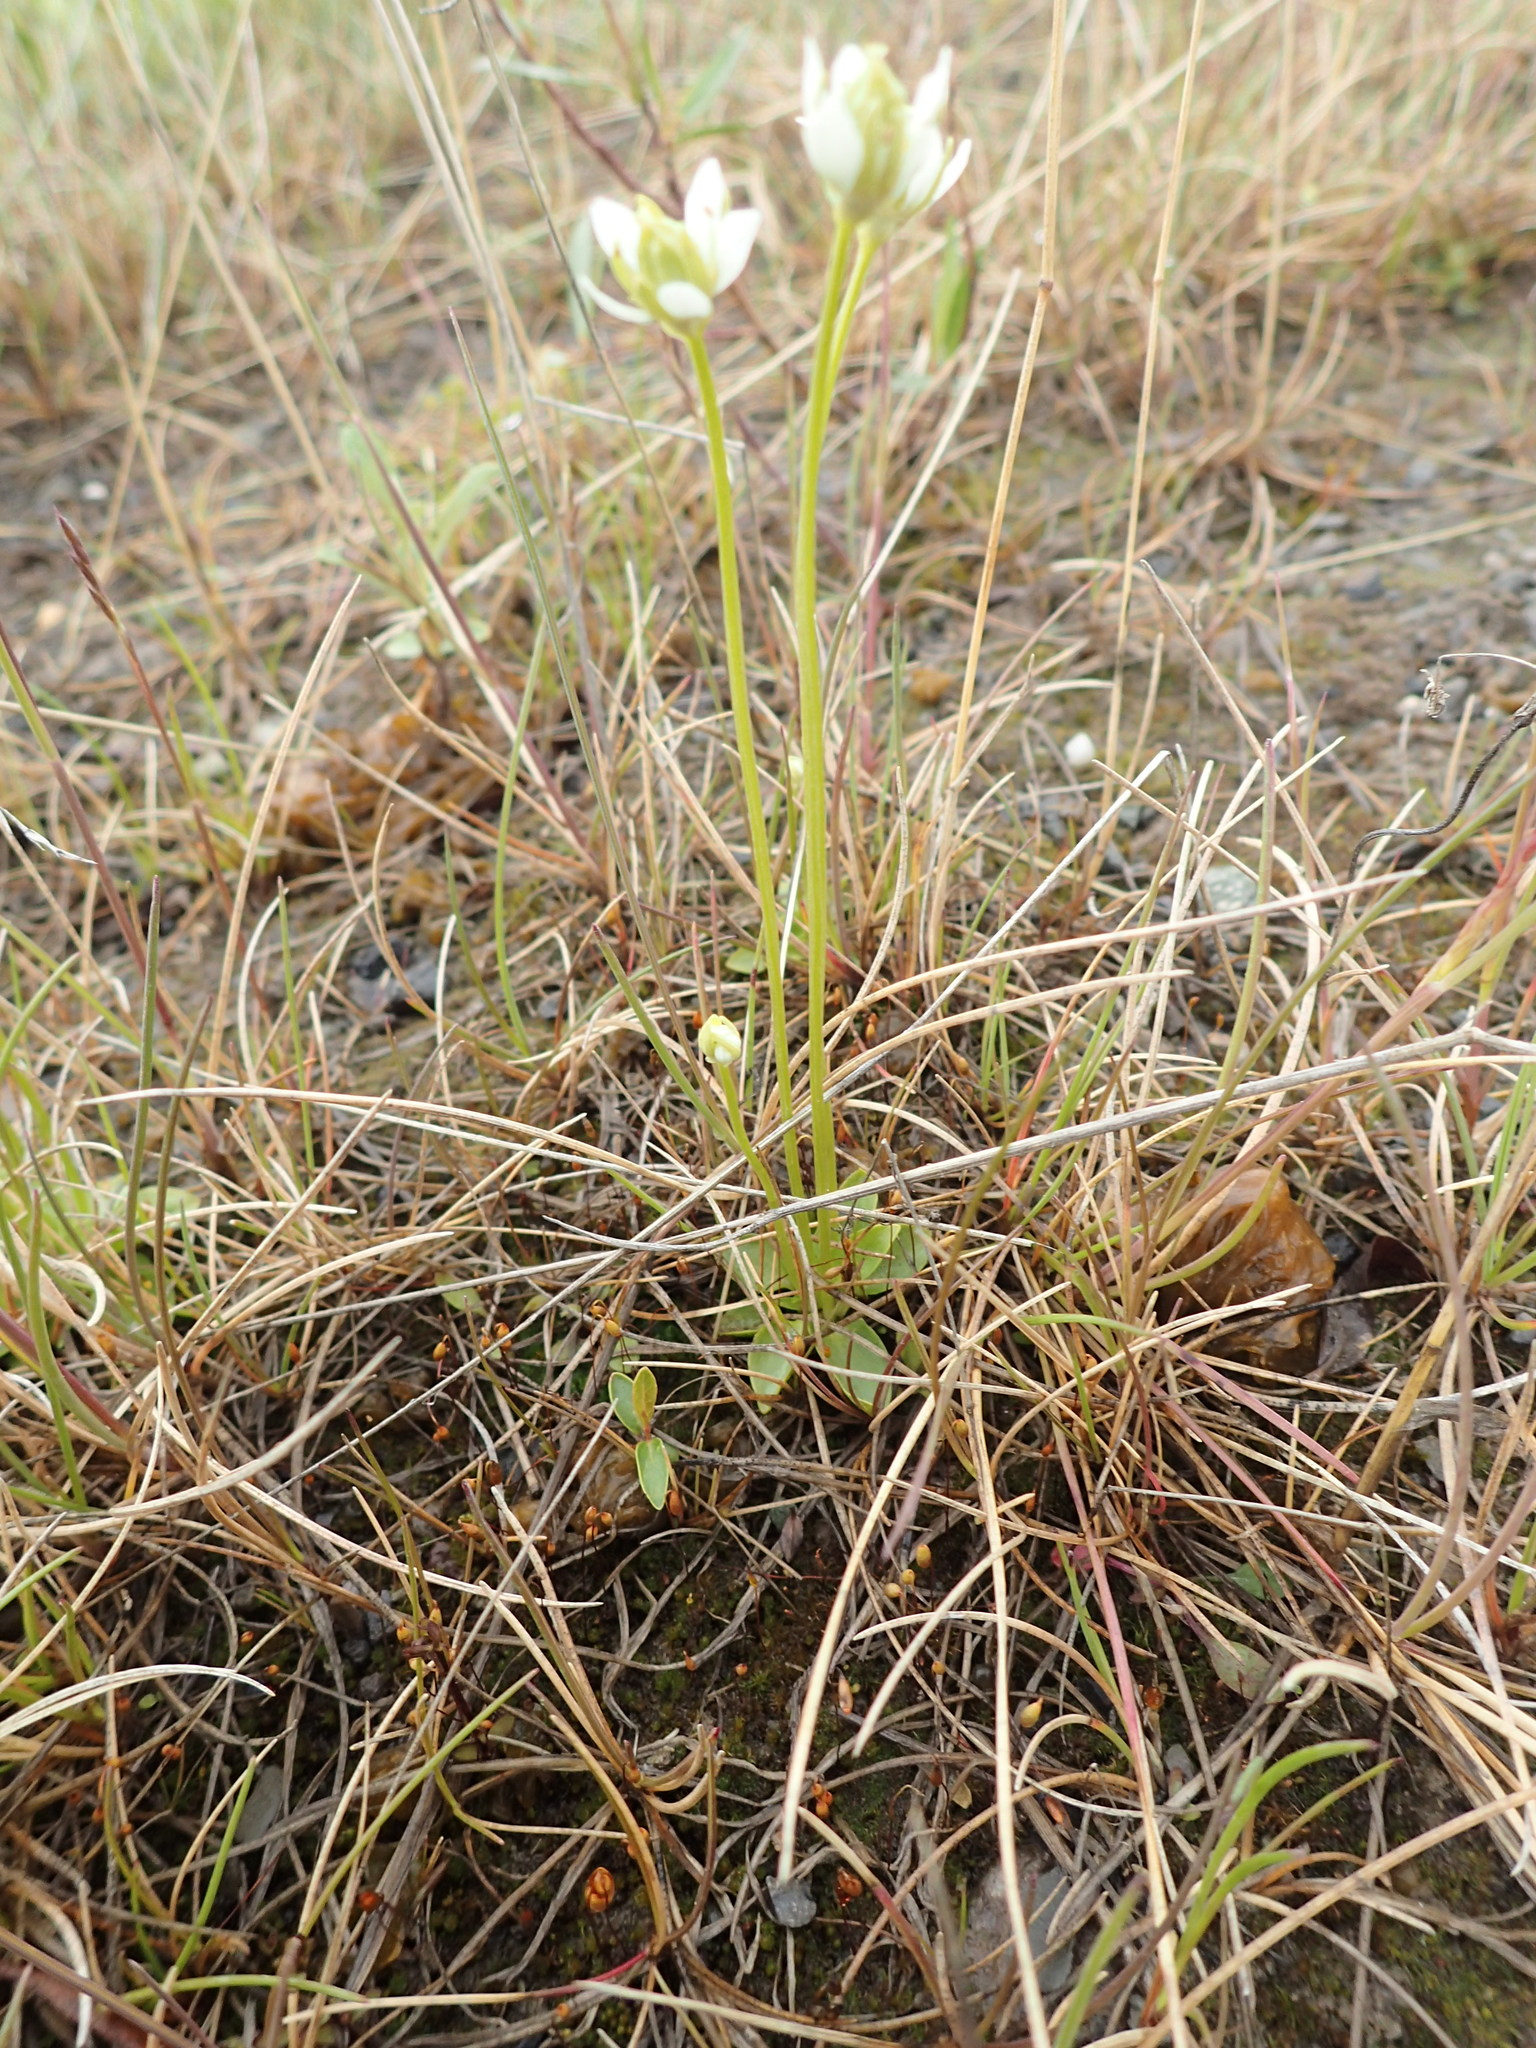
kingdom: Plantae
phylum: Tracheophyta
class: Magnoliopsida
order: Celastrales
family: Parnassiaceae
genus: Parnassia
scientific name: Parnassia kotzebuei
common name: Kotzebue's grass-of-parnassus
